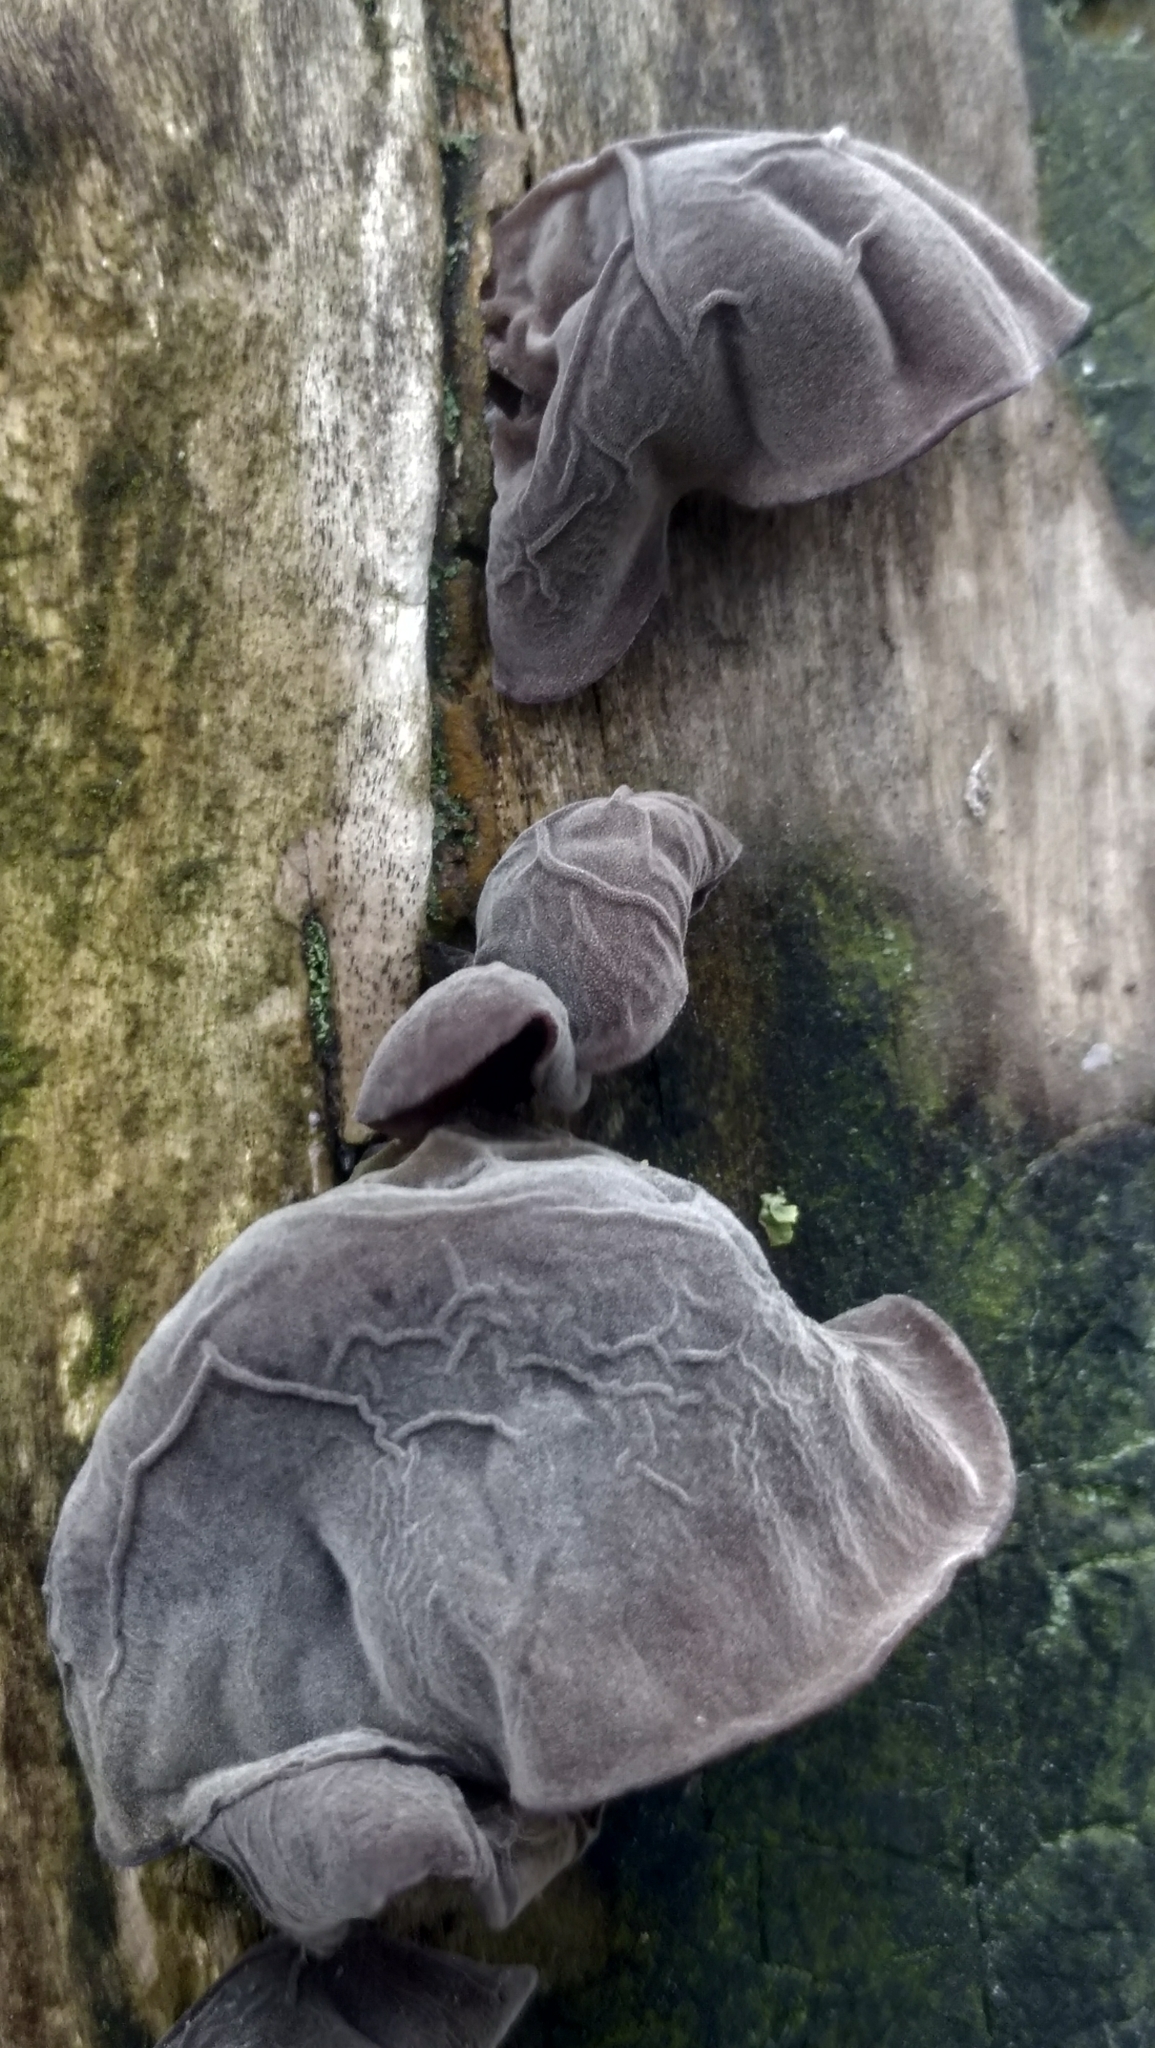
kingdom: Fungi
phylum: Basidiomycota
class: Agaricomycetes
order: Auriculariales
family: Auriculariaceae
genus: Auricularia
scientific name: Auricularia auricula-judae
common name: Jelly ear
